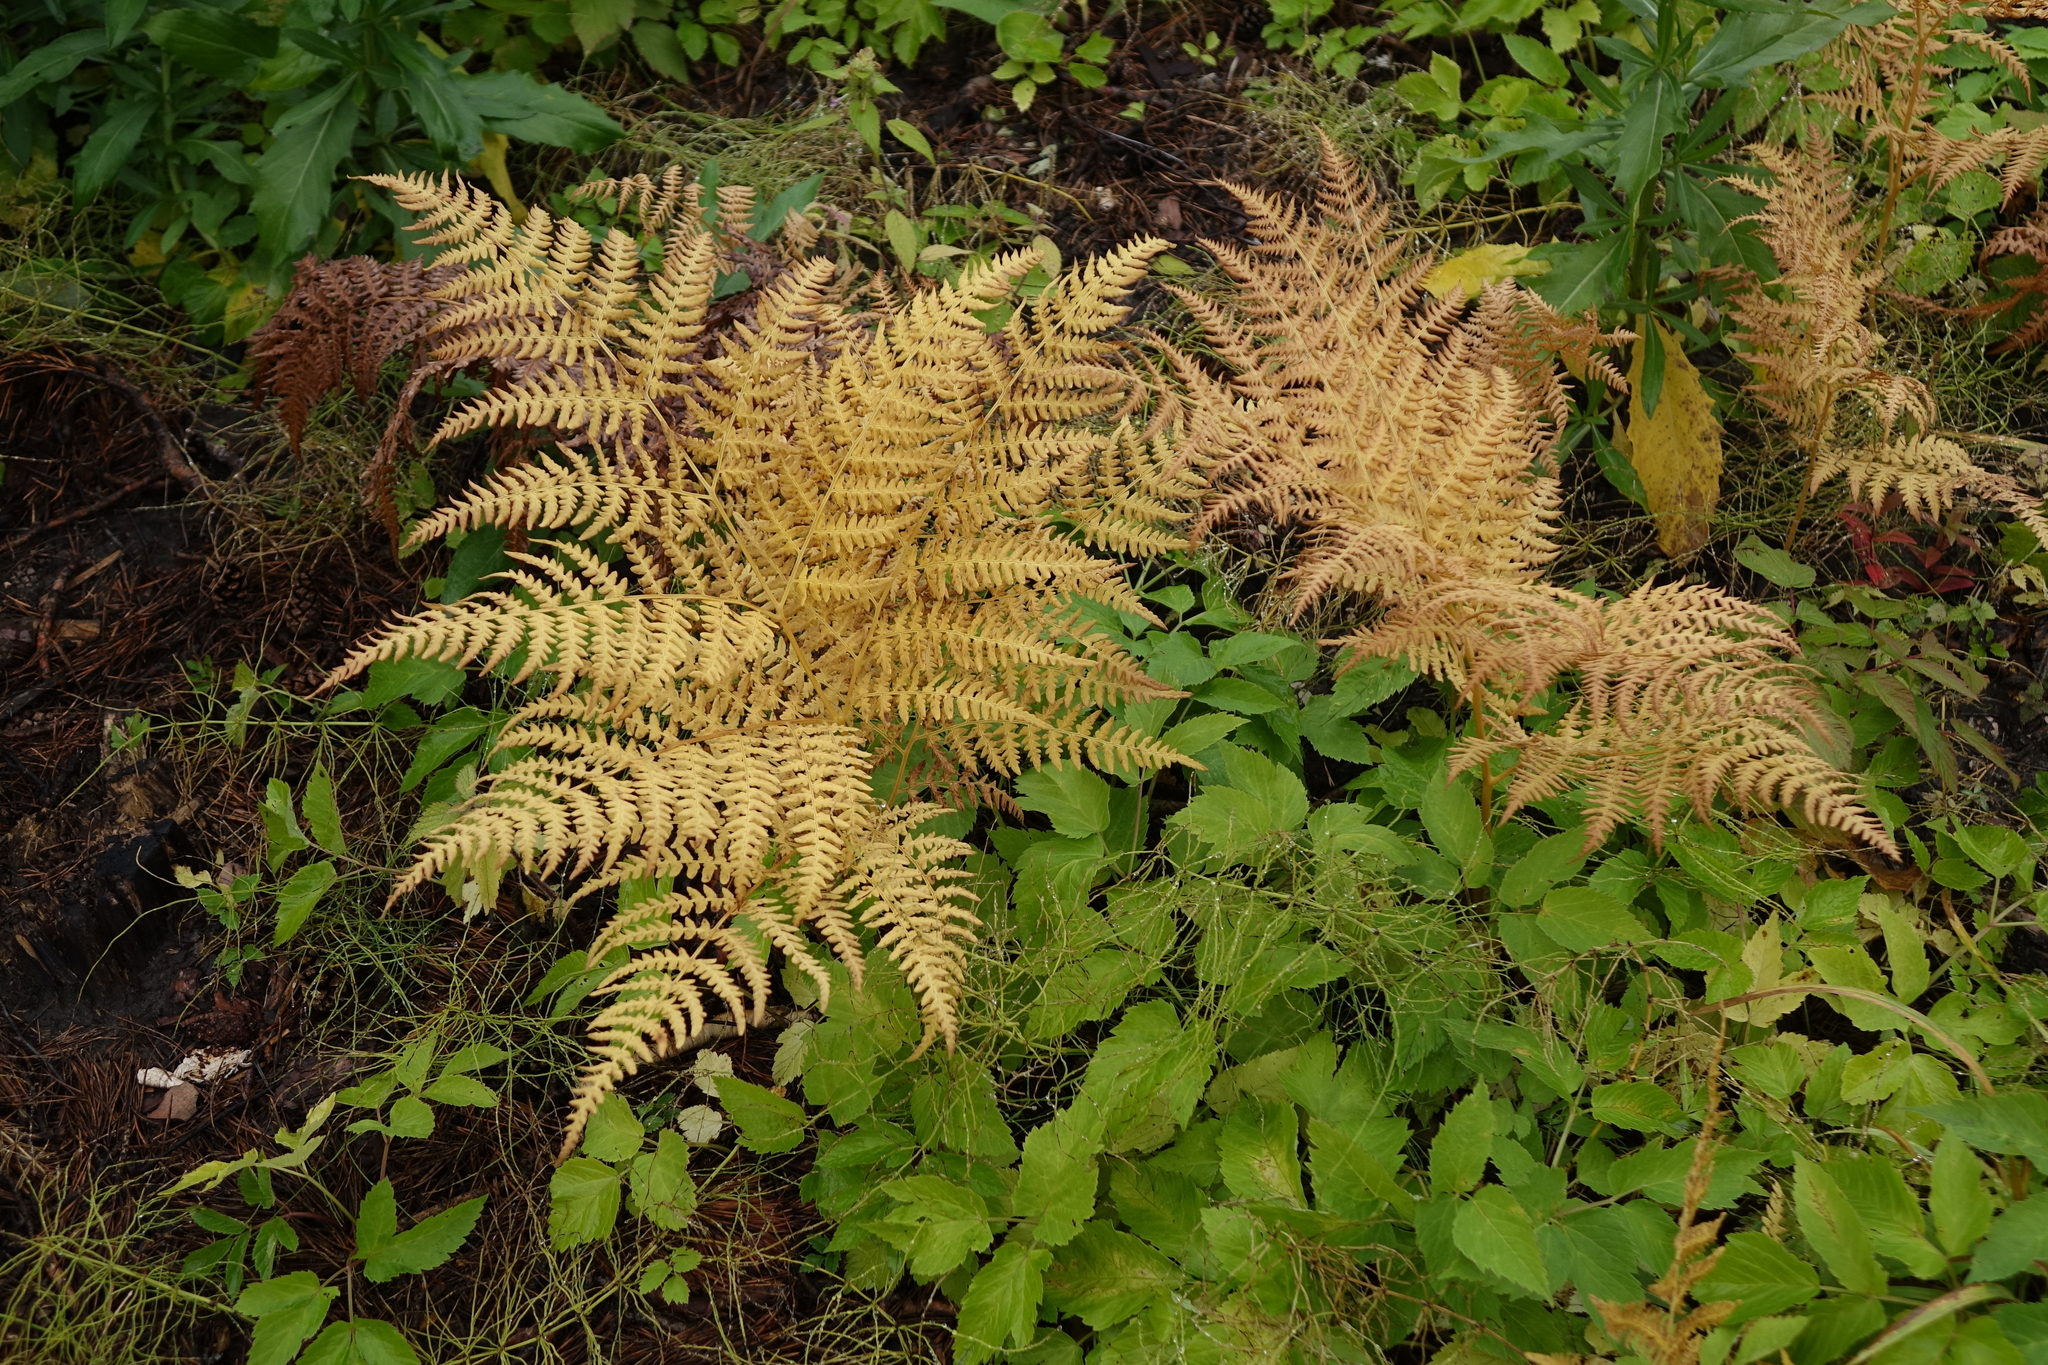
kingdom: Plantae
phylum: Tracheophyta
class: Polypodiopsida
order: Polypodiales
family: Dennstaedtiaceae
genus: Pteridium
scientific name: Pteridium aquilinum
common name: Bracken
